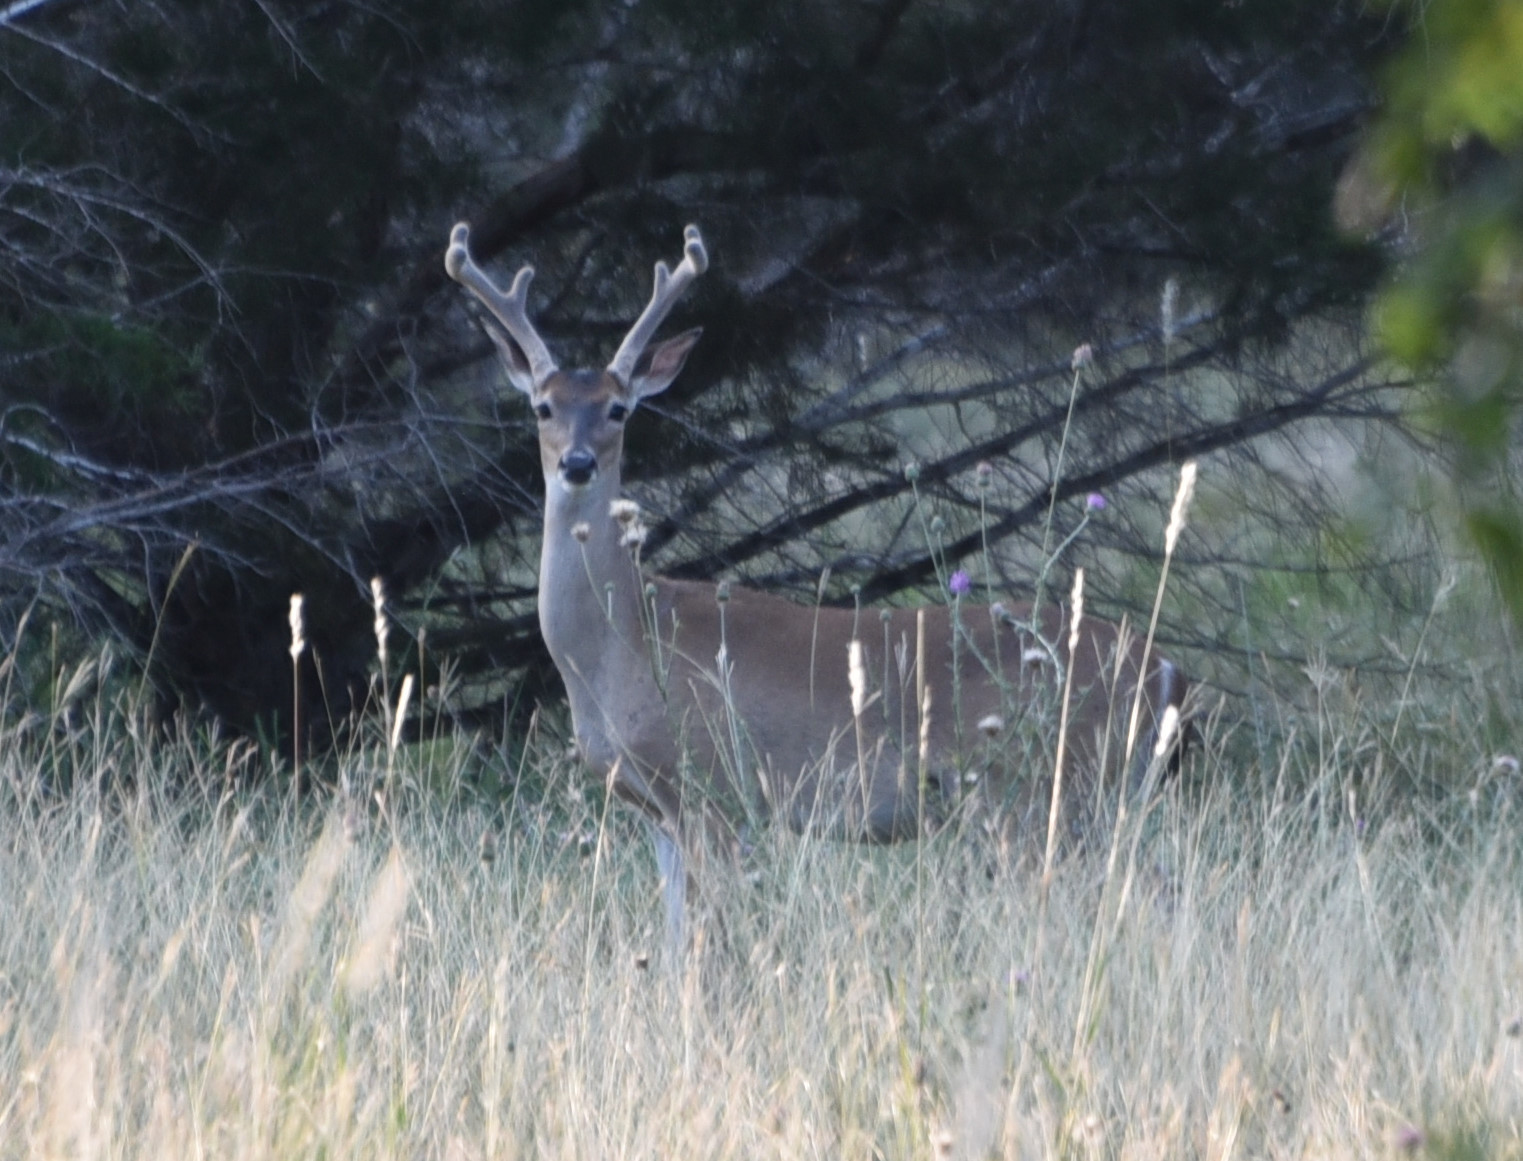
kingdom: Animalia
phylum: Chordata
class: Mammalia
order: Artiodactyla
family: Cervidae
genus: Odocoileus
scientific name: Odocoileus virginianus
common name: White-tailed deer
